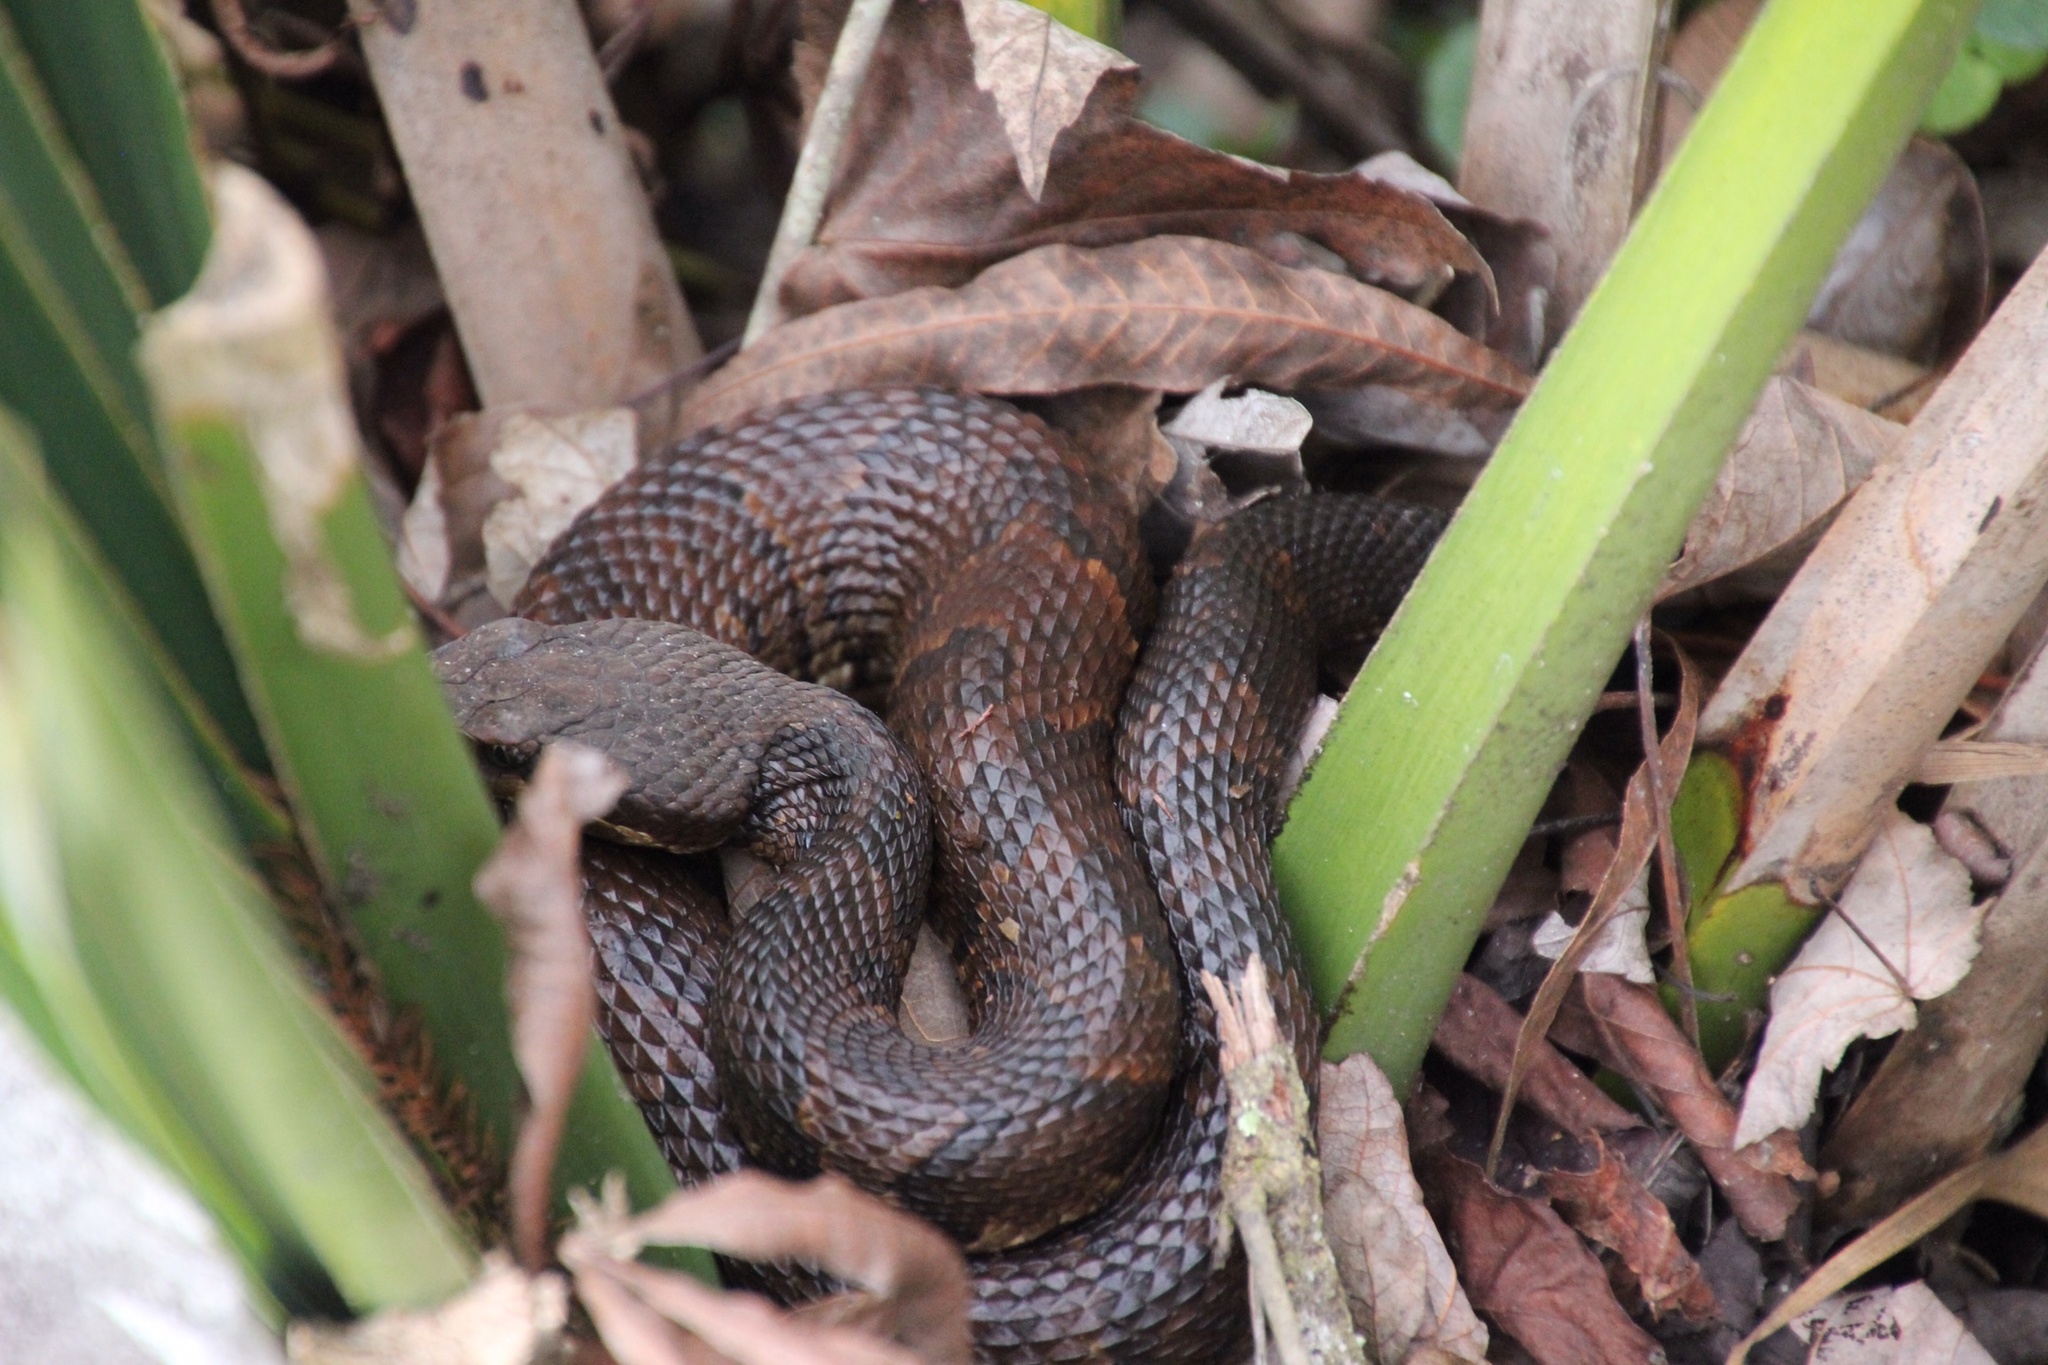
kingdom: Animalia
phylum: Chordata
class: Squamata
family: Viperidae
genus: Agkistrodon
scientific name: Agkistrodon piscivorus
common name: Cottonmouth
